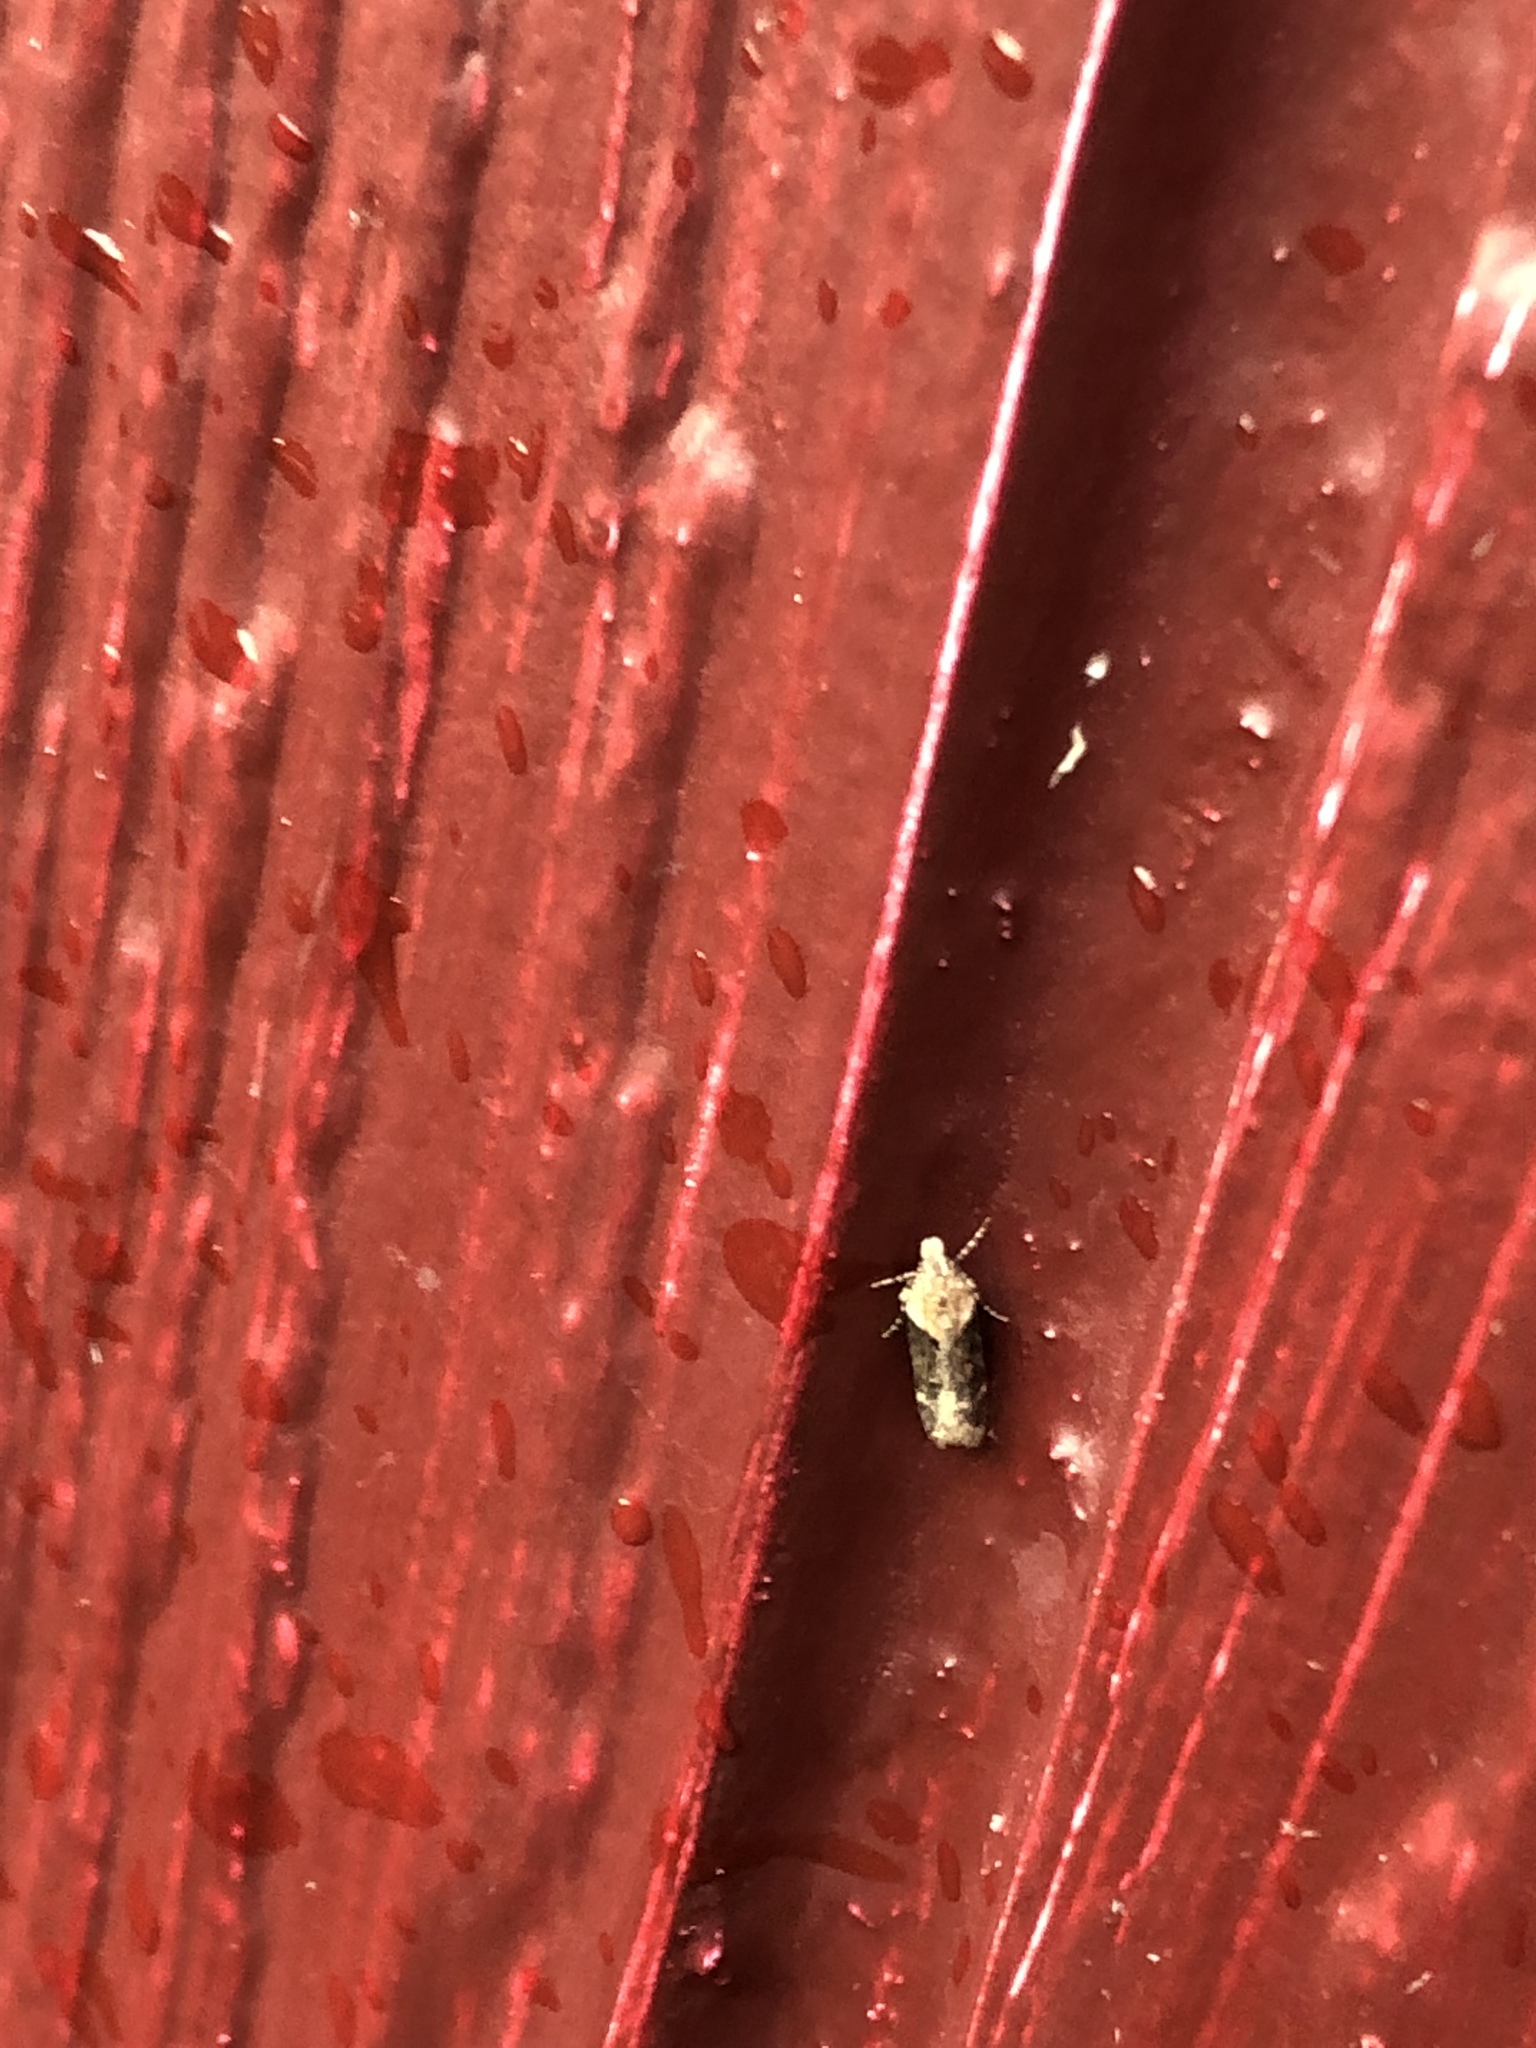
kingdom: Animalia
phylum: Arthropoda
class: Insecta
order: Lepidoptera
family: Gelechiidae
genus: Chionodes
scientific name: Chionodes mediofuscella
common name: Black-smudged chionodes moth
